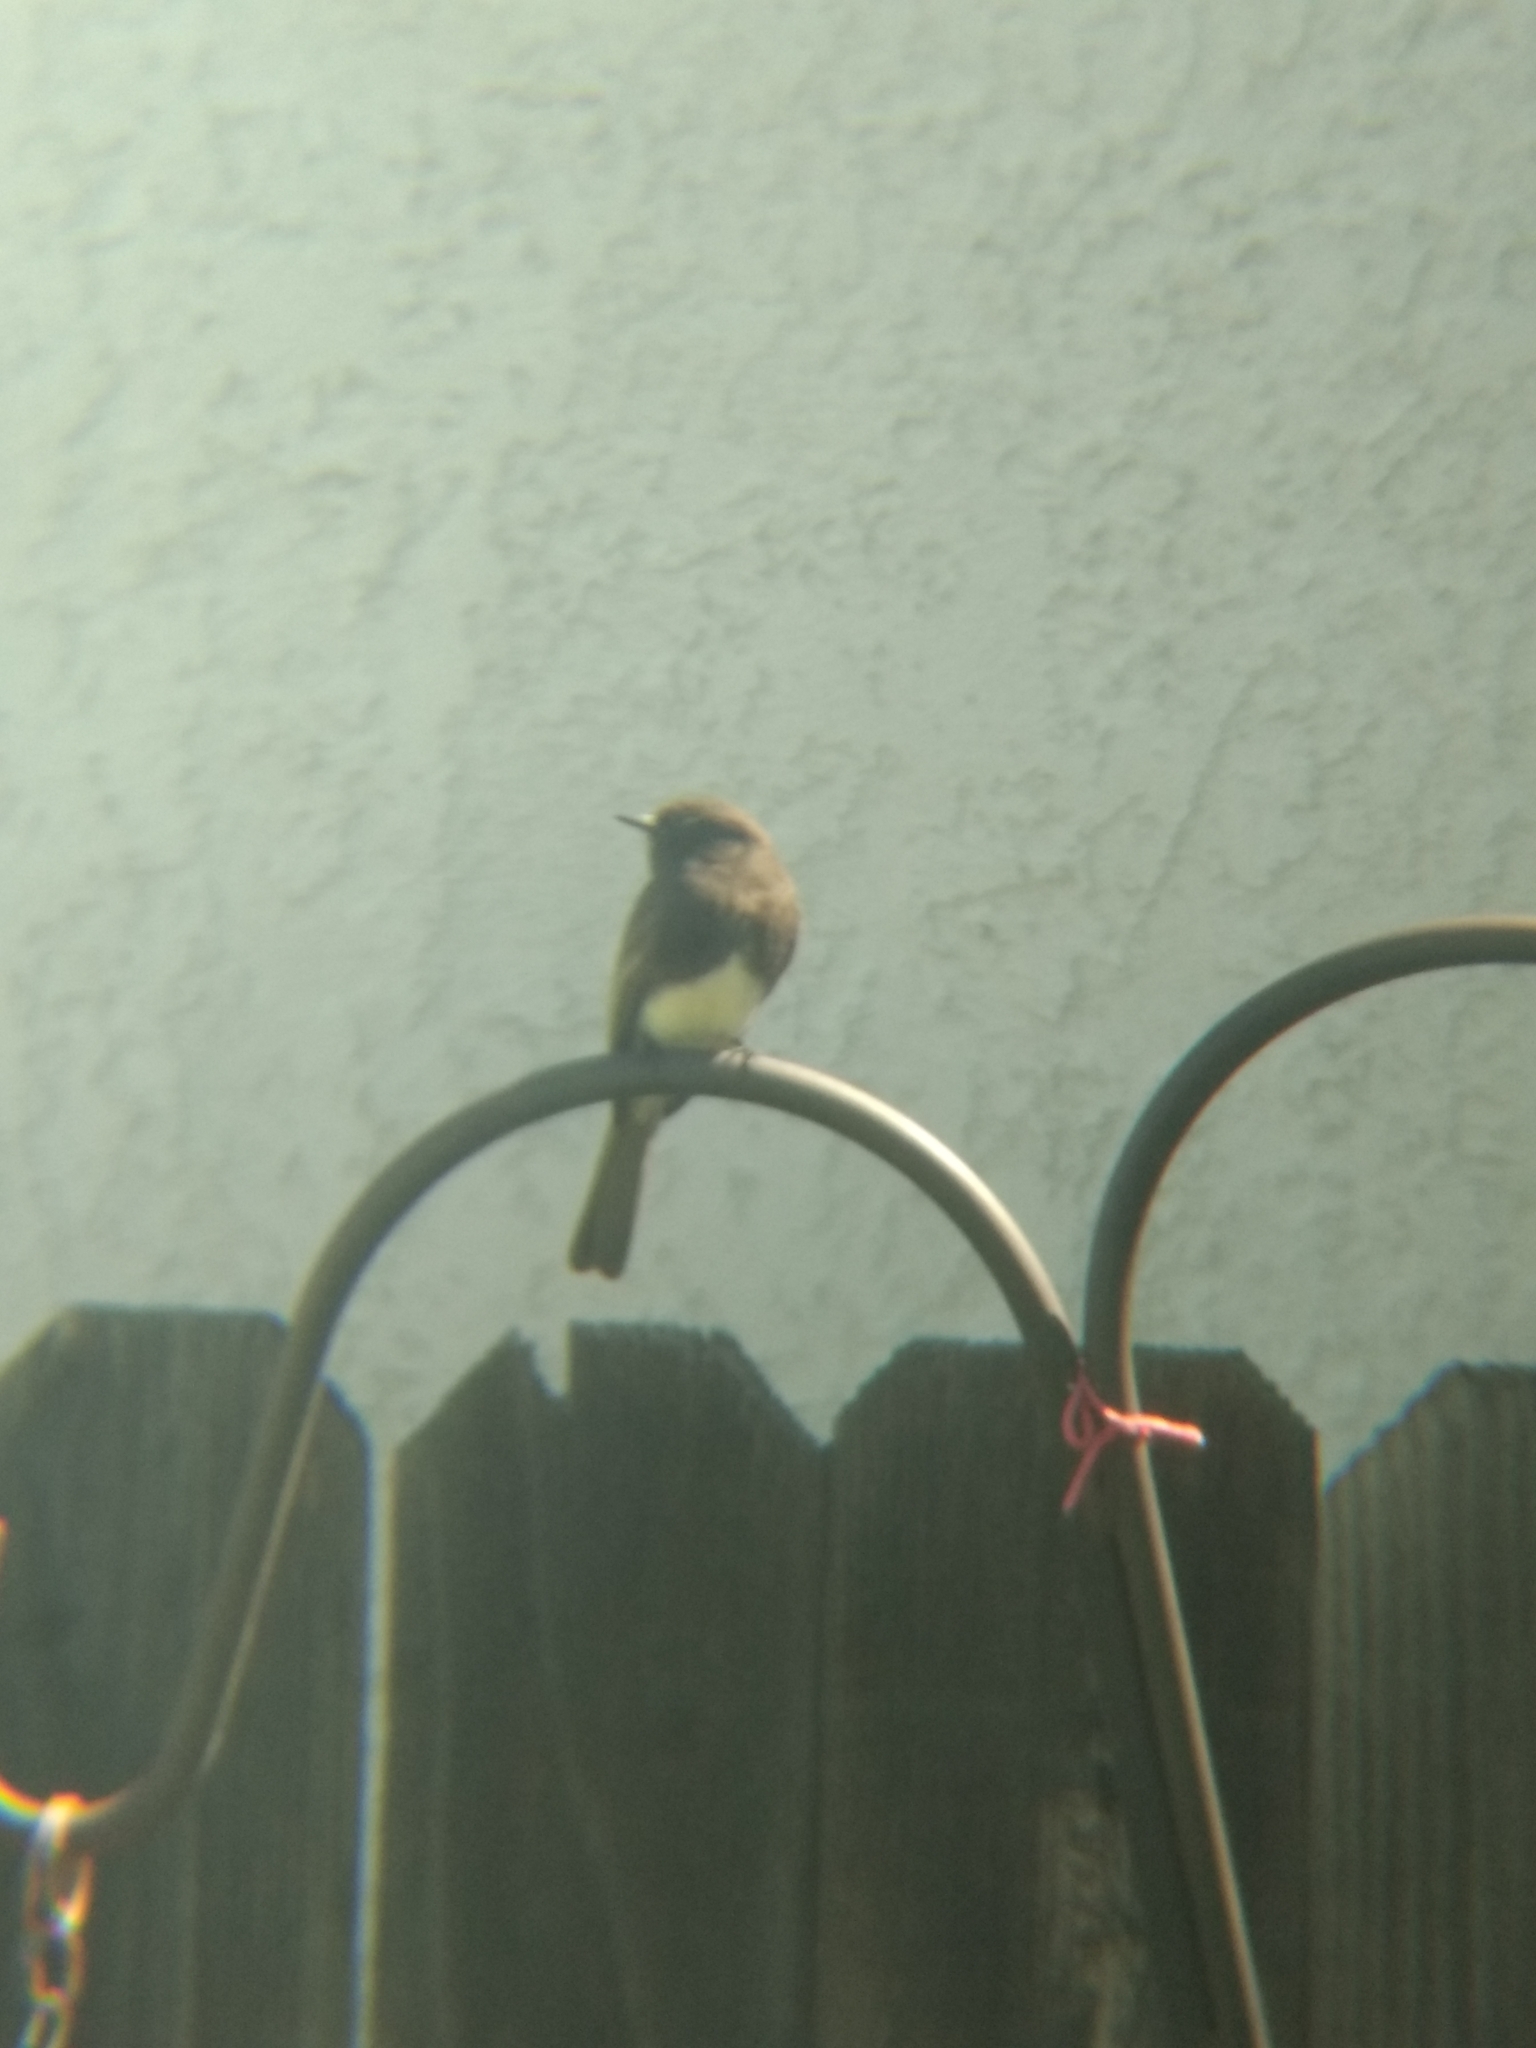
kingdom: Animalia
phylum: Chordata
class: Aves
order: Passeriformes
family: Tyrannidae
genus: Sayornis
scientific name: Sayornis nigricans
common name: Black phoebe
